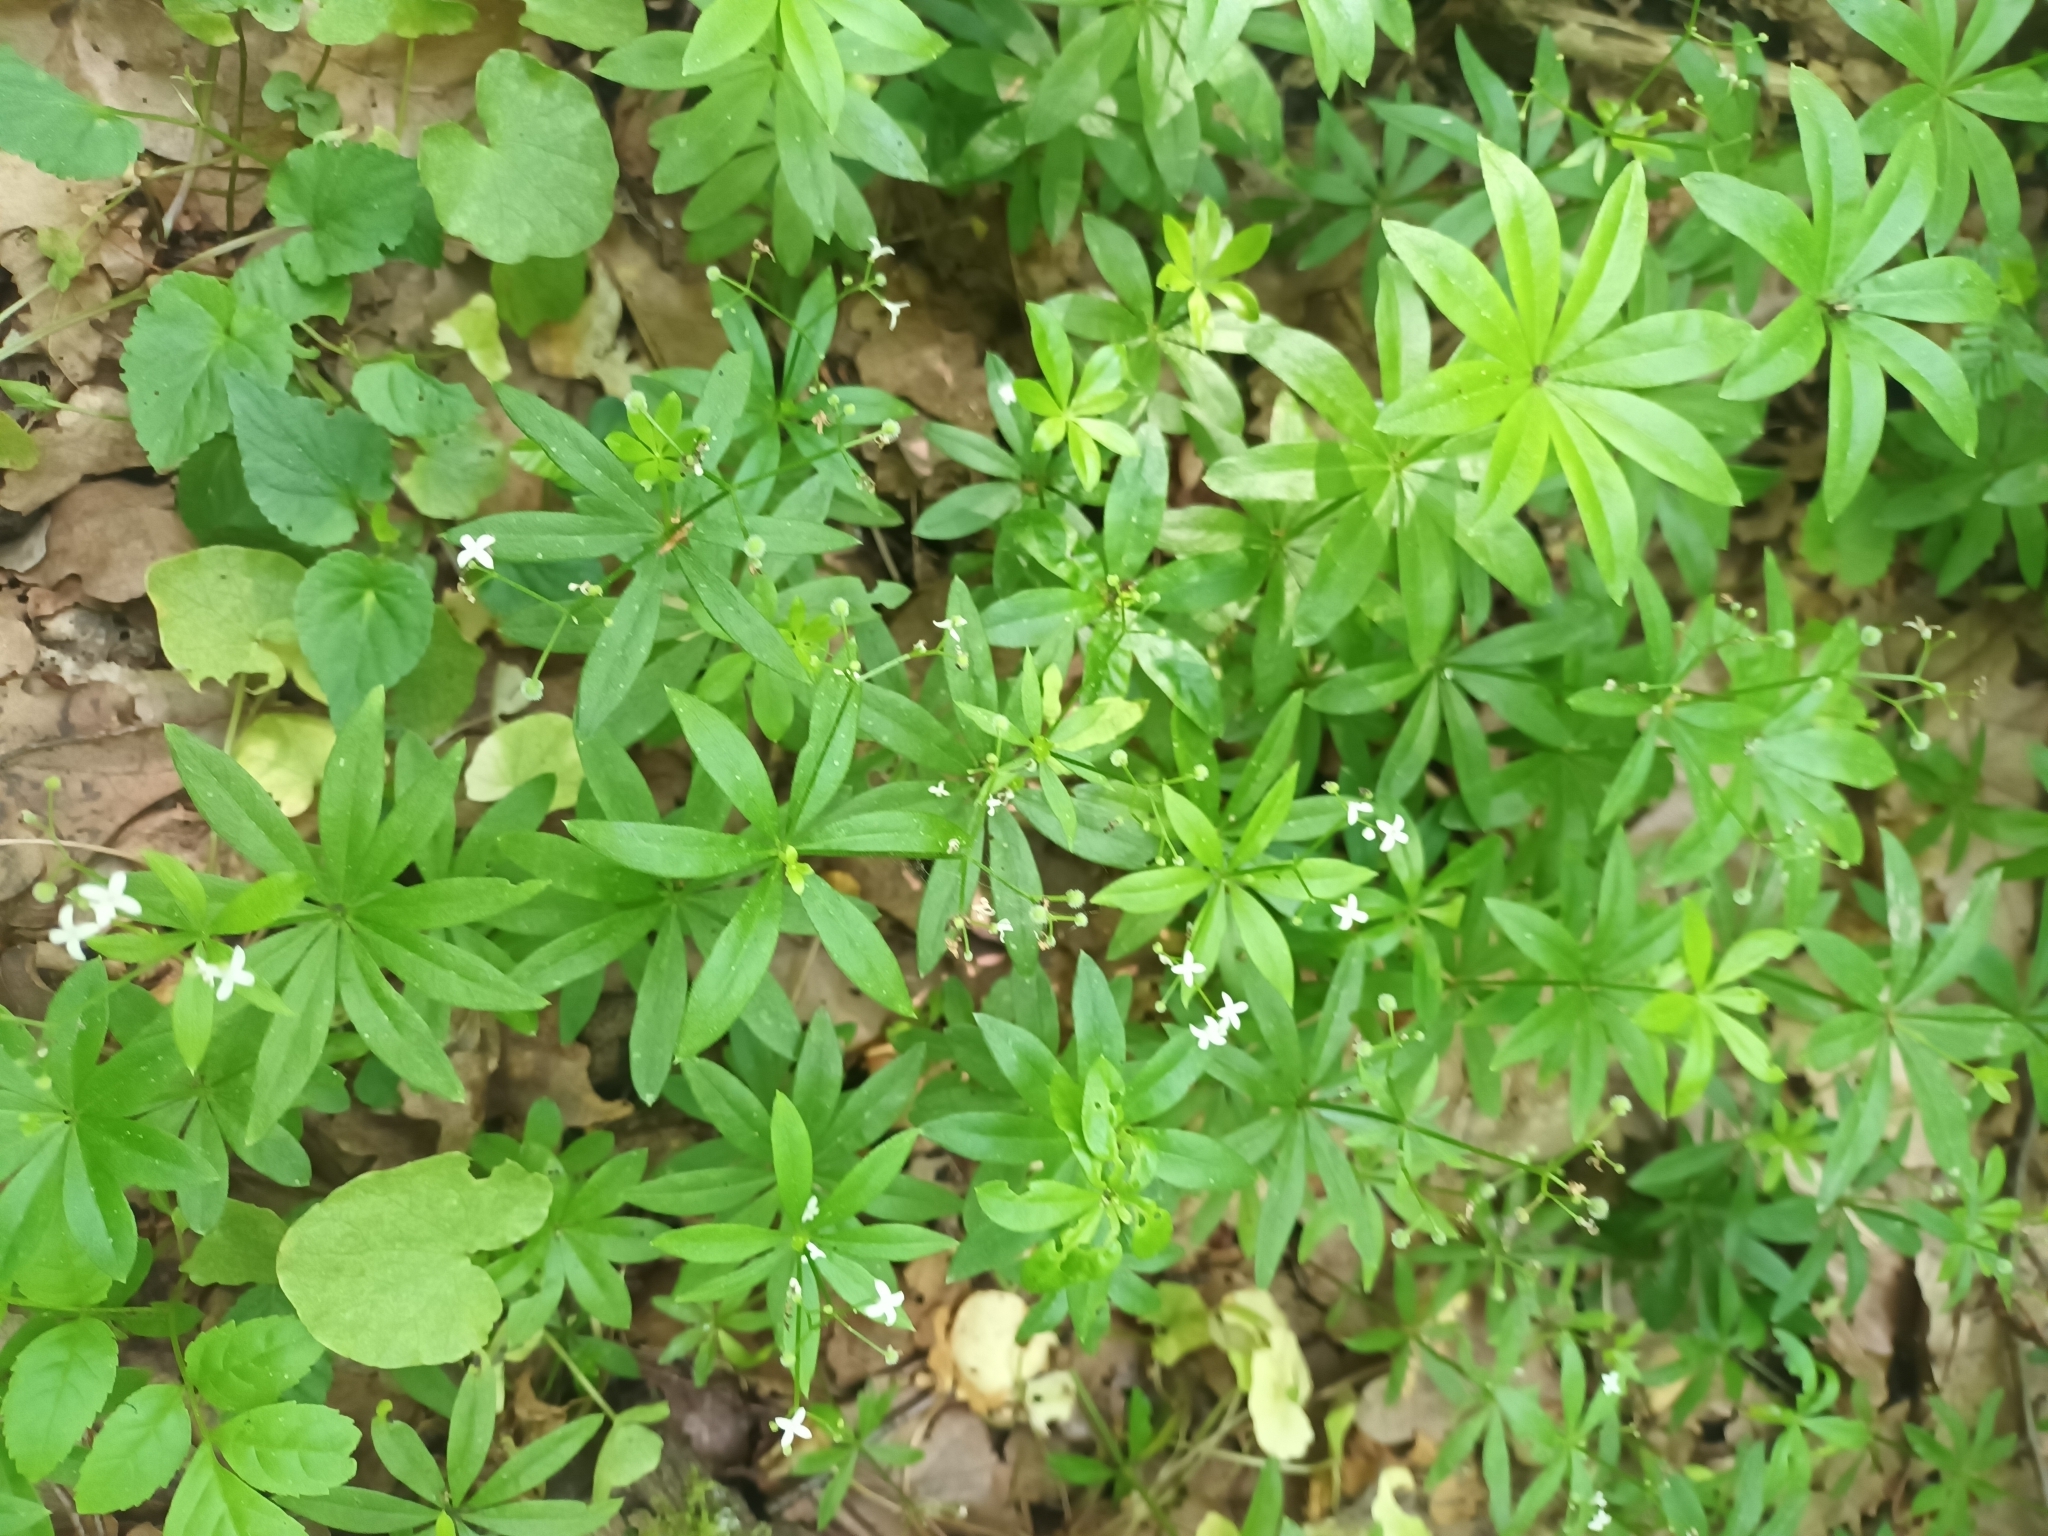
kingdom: Plantae
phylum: Tracheophyta
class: Magnoliopsida
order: Gentianales
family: Rubiaceae
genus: Galium
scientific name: Galium odoratum
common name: Sweet woodruff
